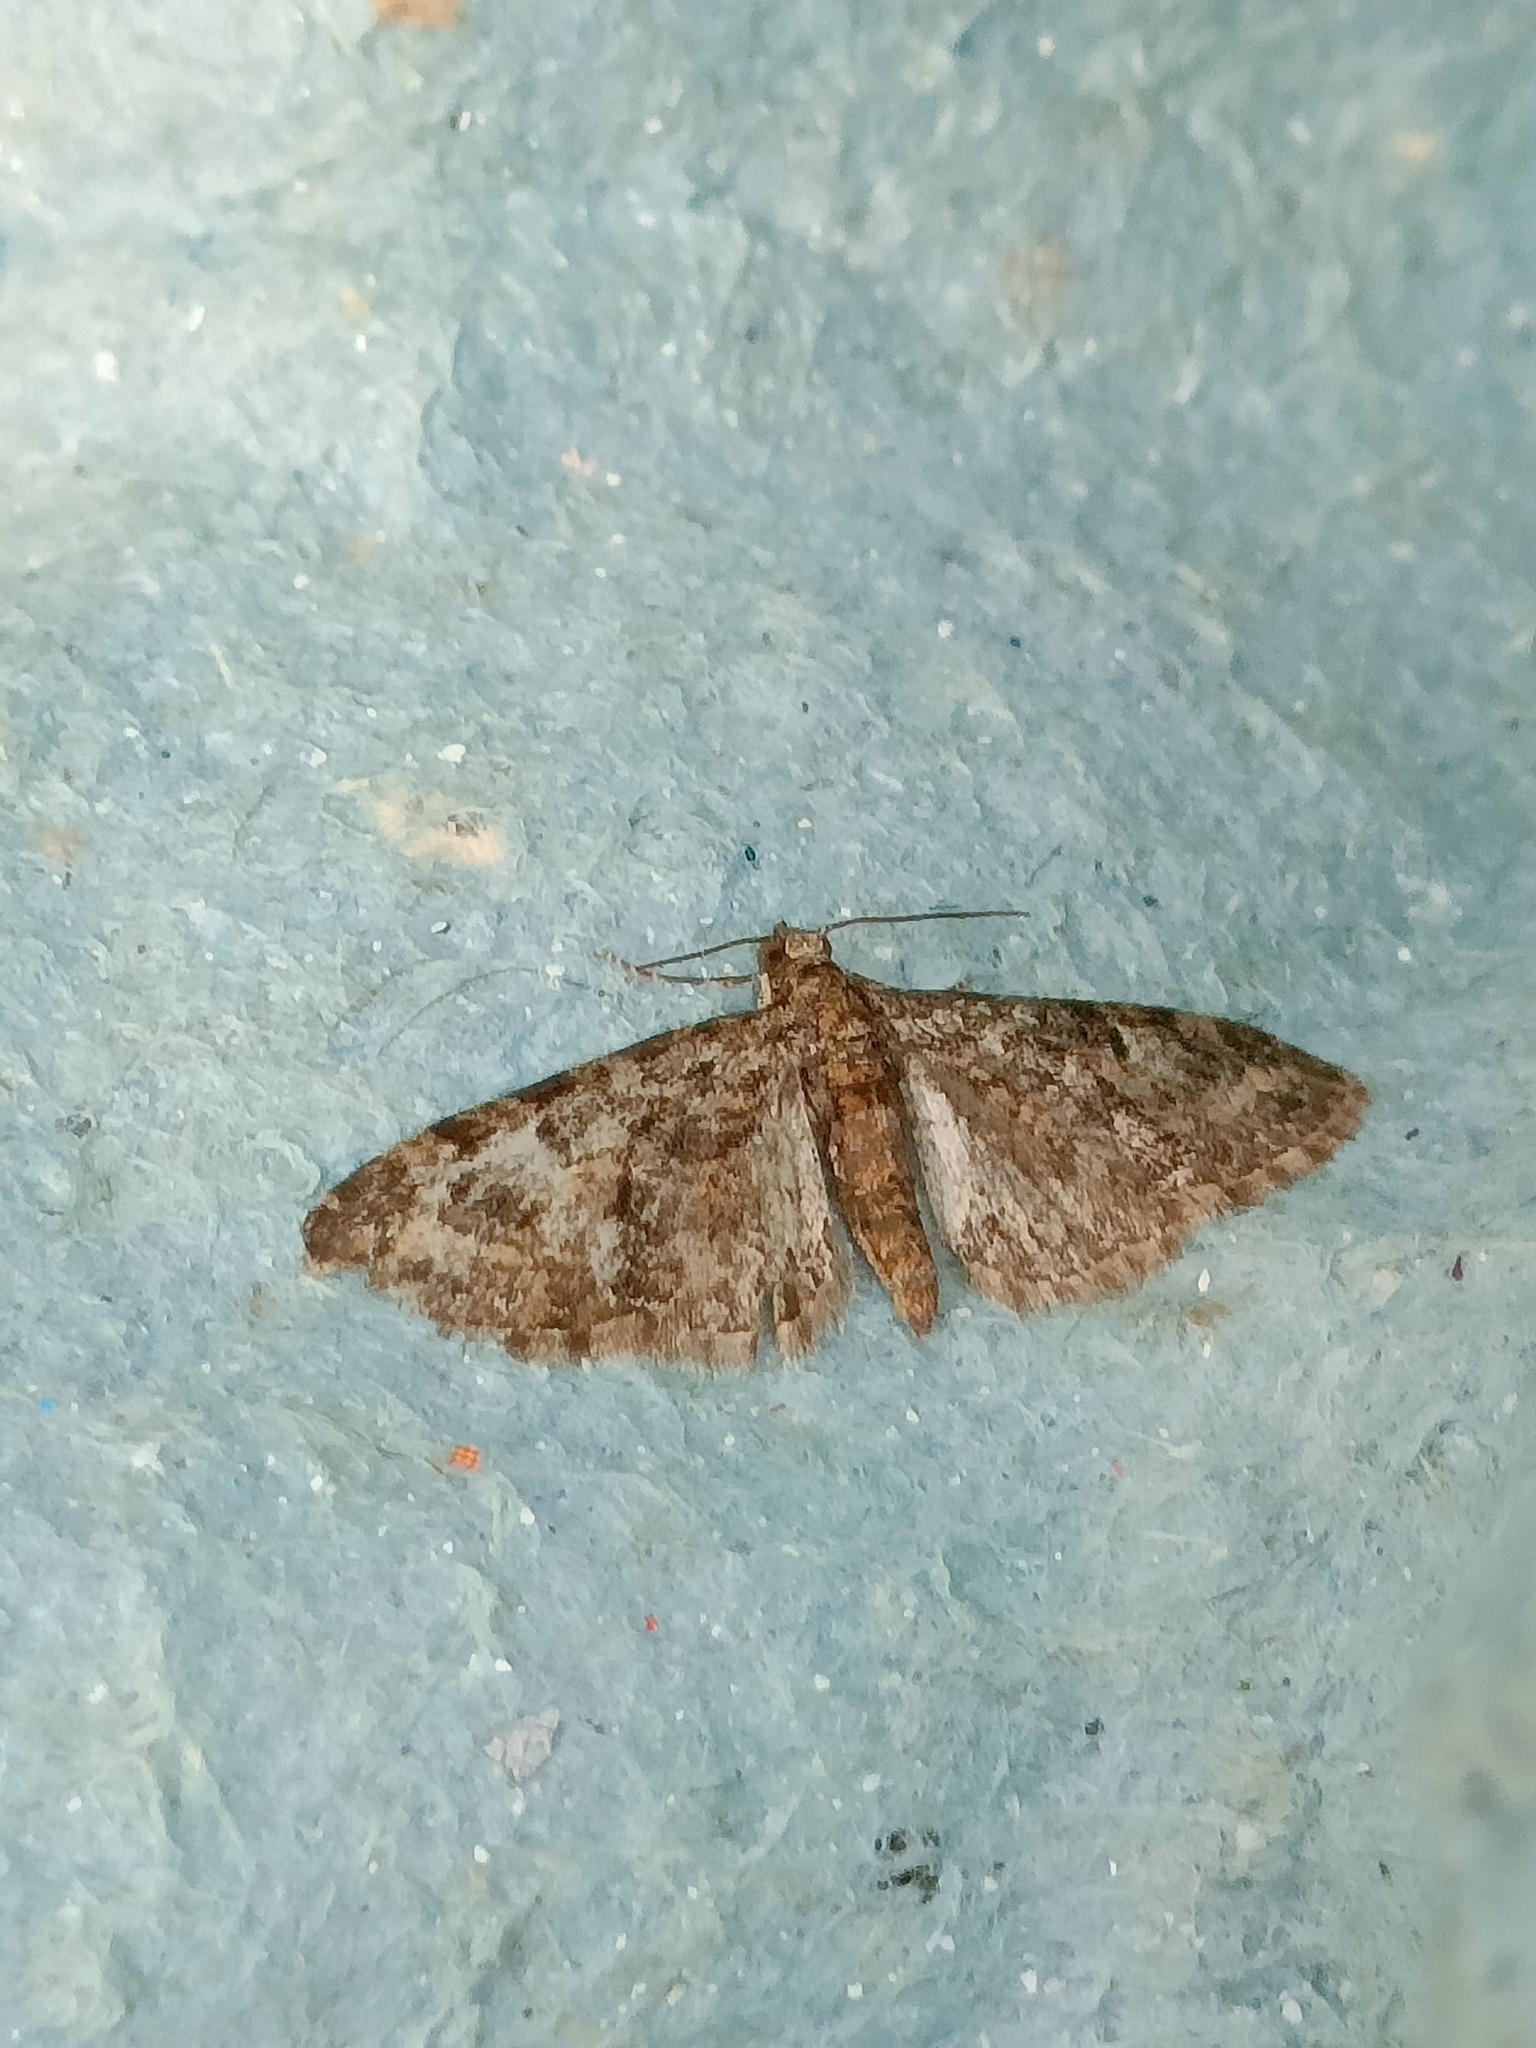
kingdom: Animalia
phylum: Arthropoda
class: Insecta
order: Lepidoptera
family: Geometridae
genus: Eupithecia
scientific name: Eupithecia abbreviata
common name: Brindled pug
